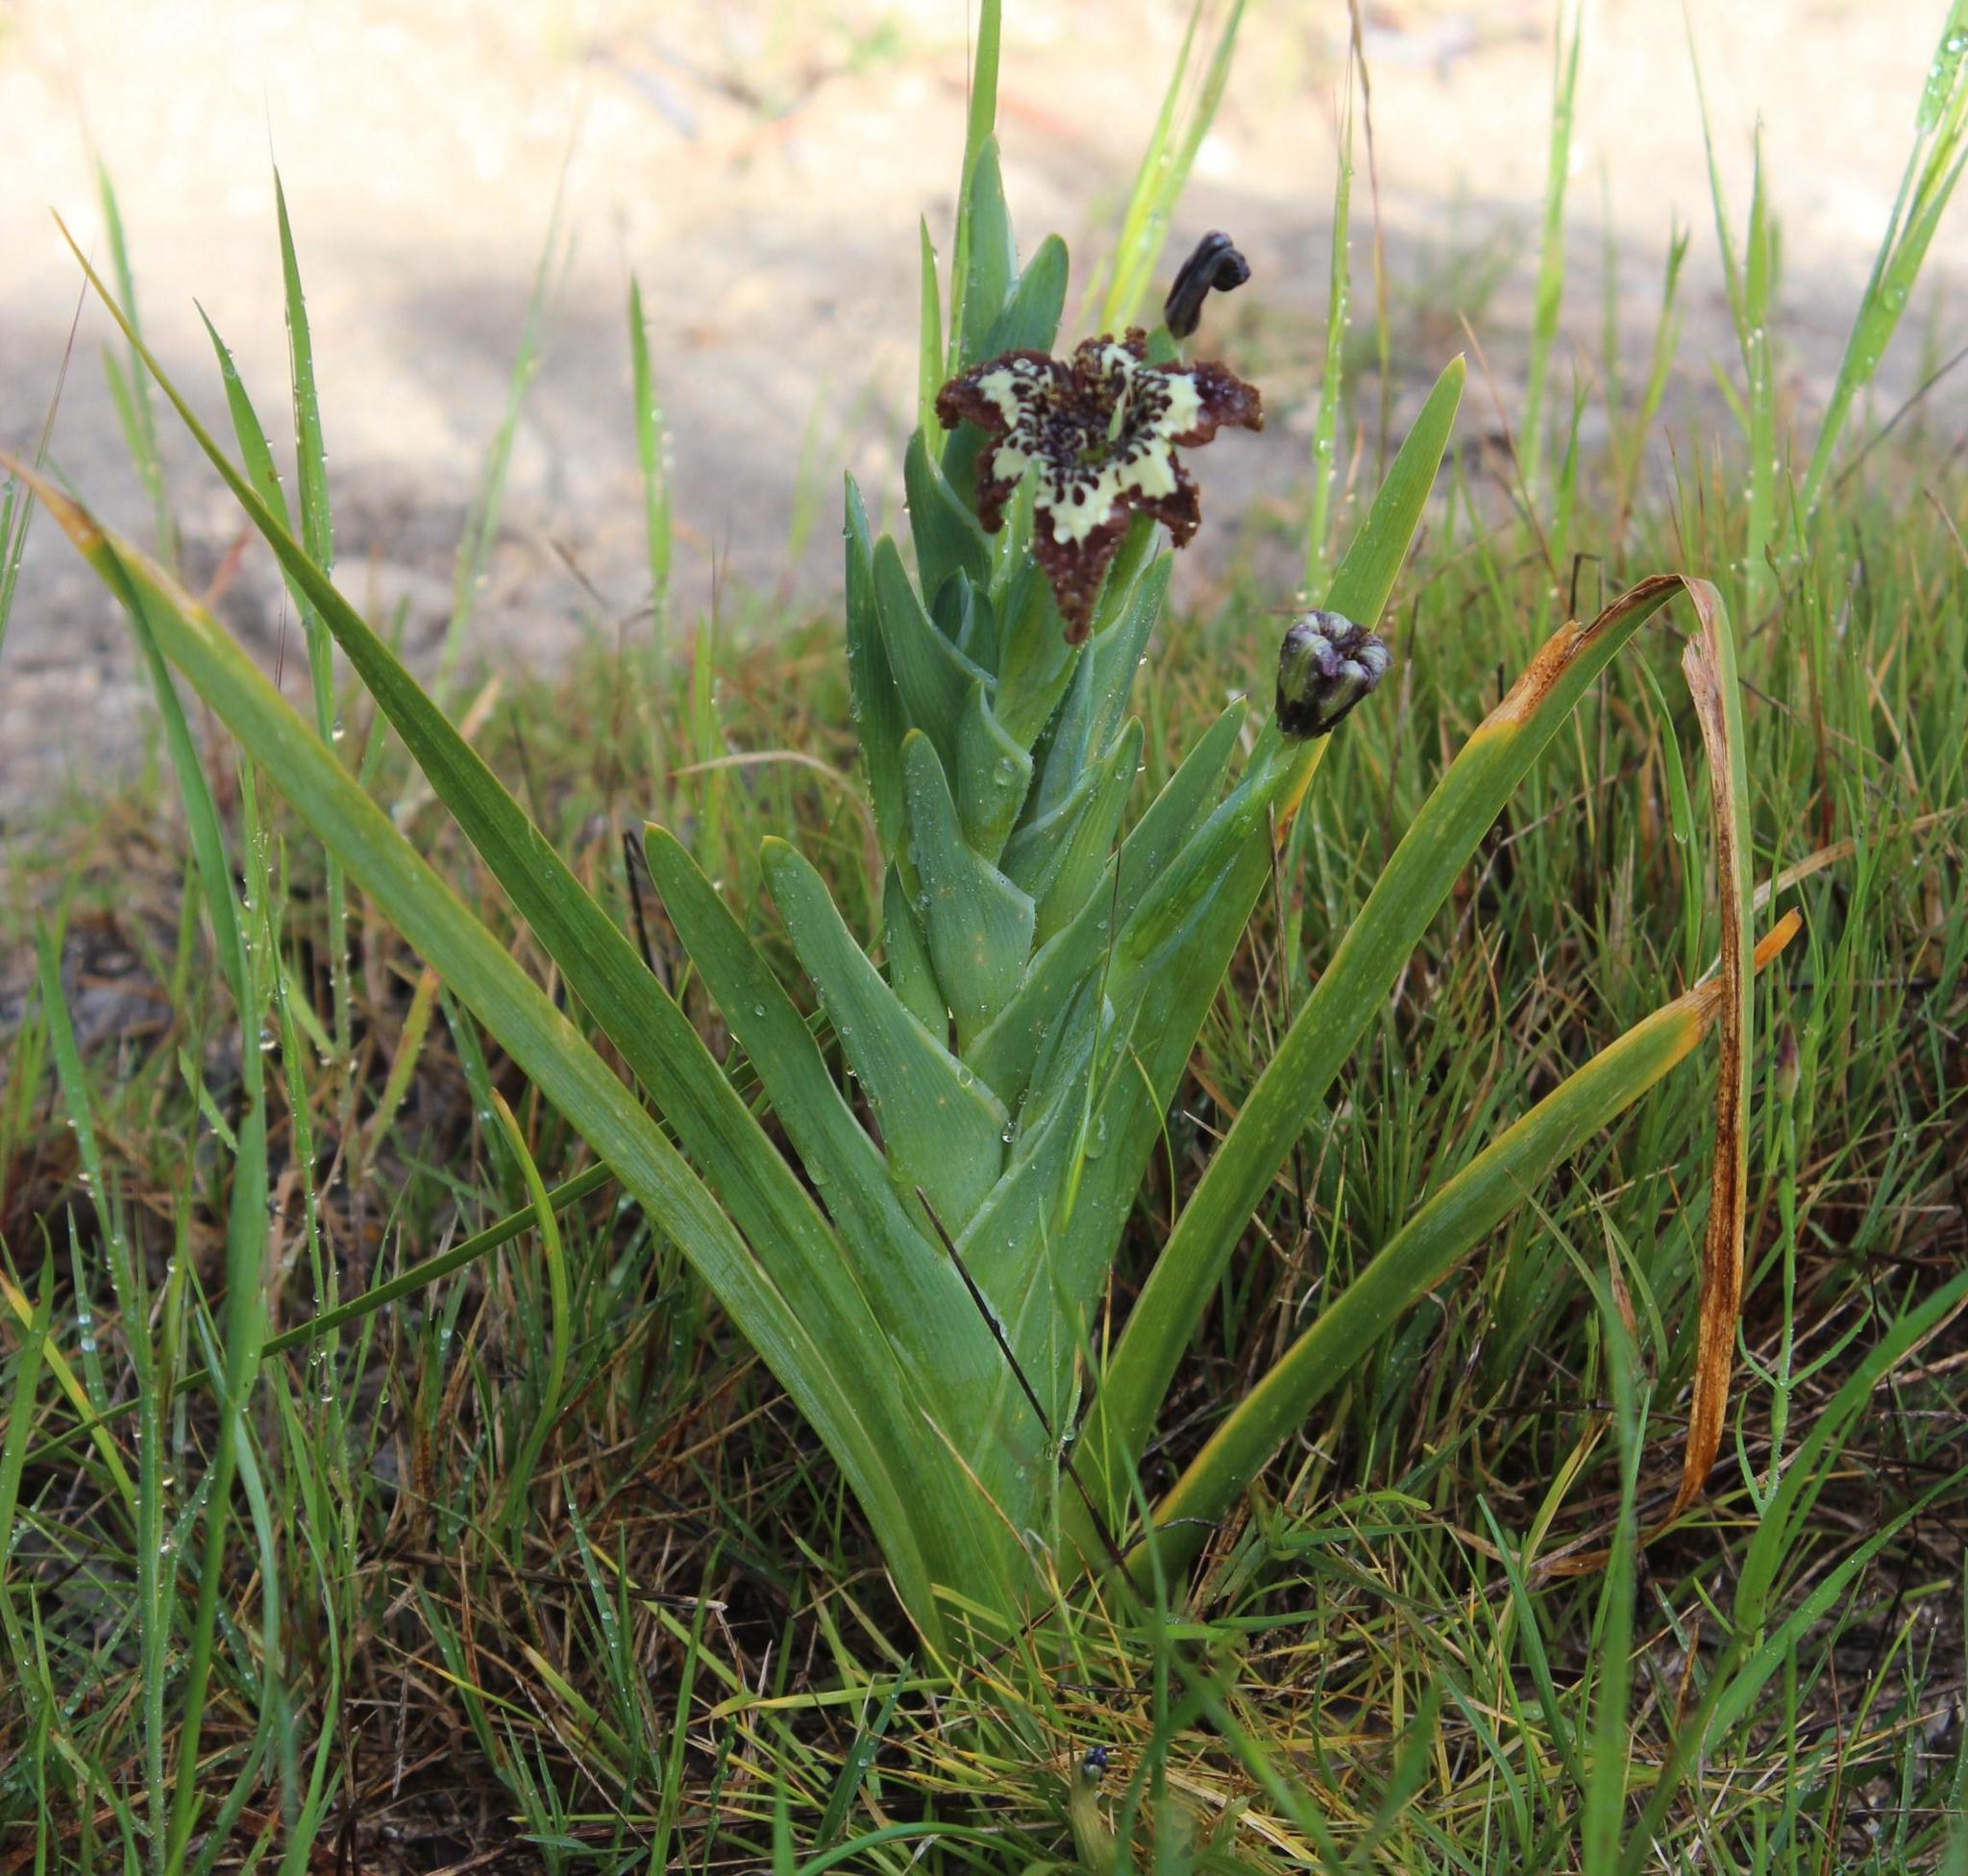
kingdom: Plantae
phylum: Tracheophyta
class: Liliopsida
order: Asparagales
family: Iridaceae
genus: Ferraria
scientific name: Ferraria crispa
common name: Black-flag
